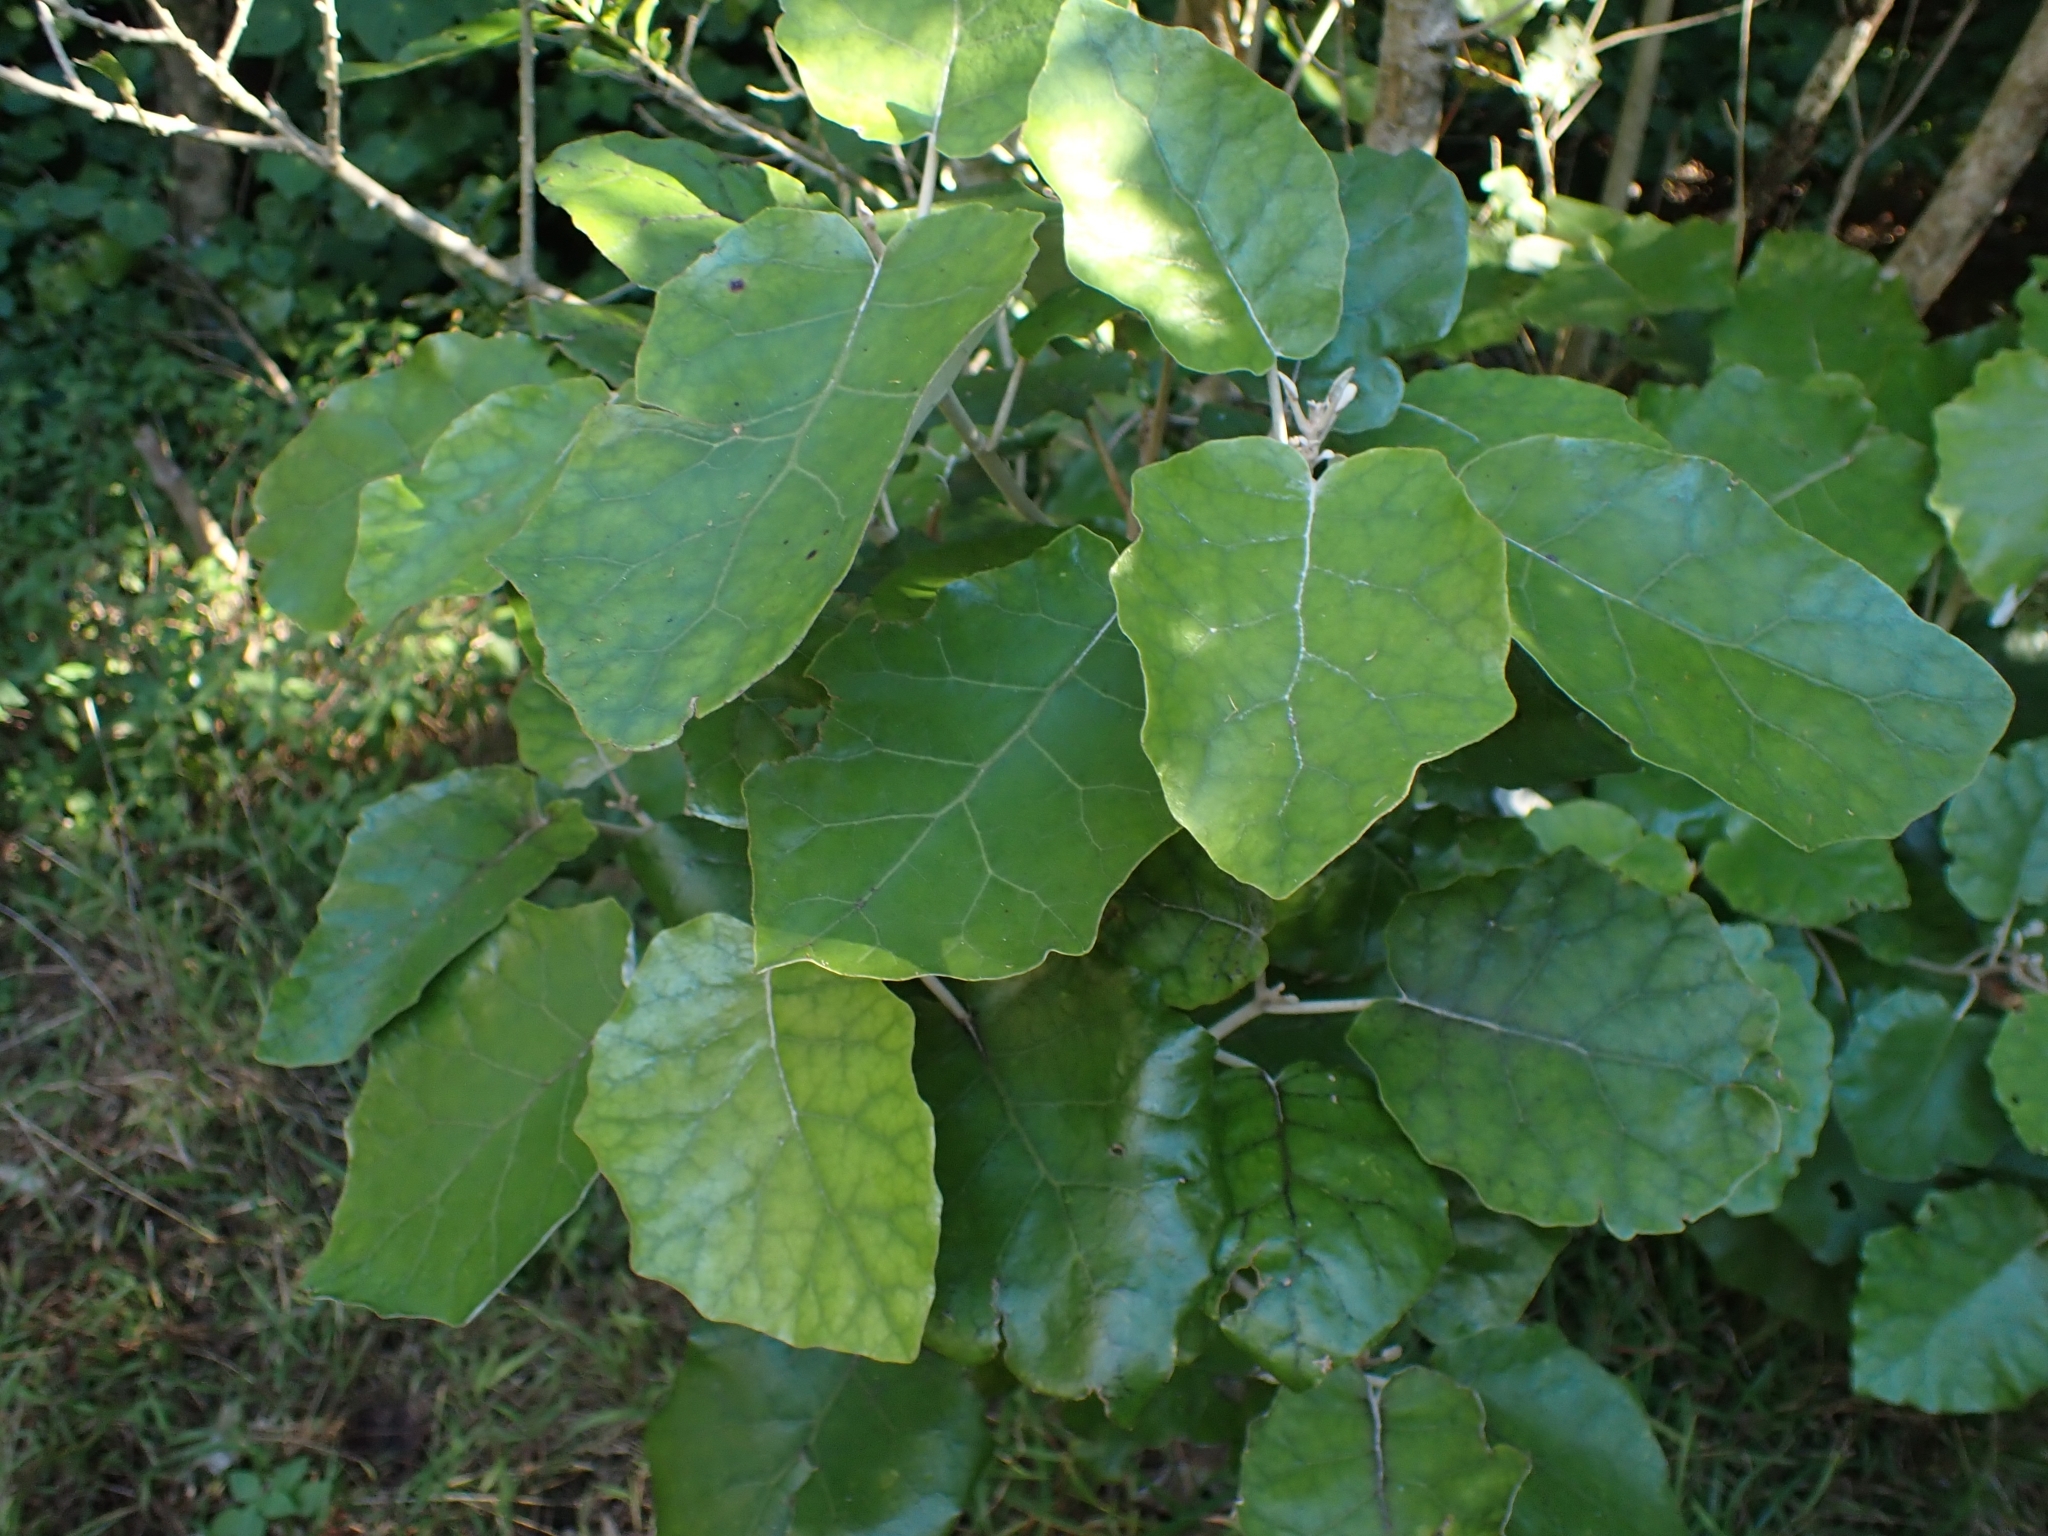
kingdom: Plantae
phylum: Tracheophyta
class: Magnoliopsida
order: Asterales
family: Asteraceae
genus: Brachyglottis
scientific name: Brachyglottis repanda
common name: Hedge ragwort
